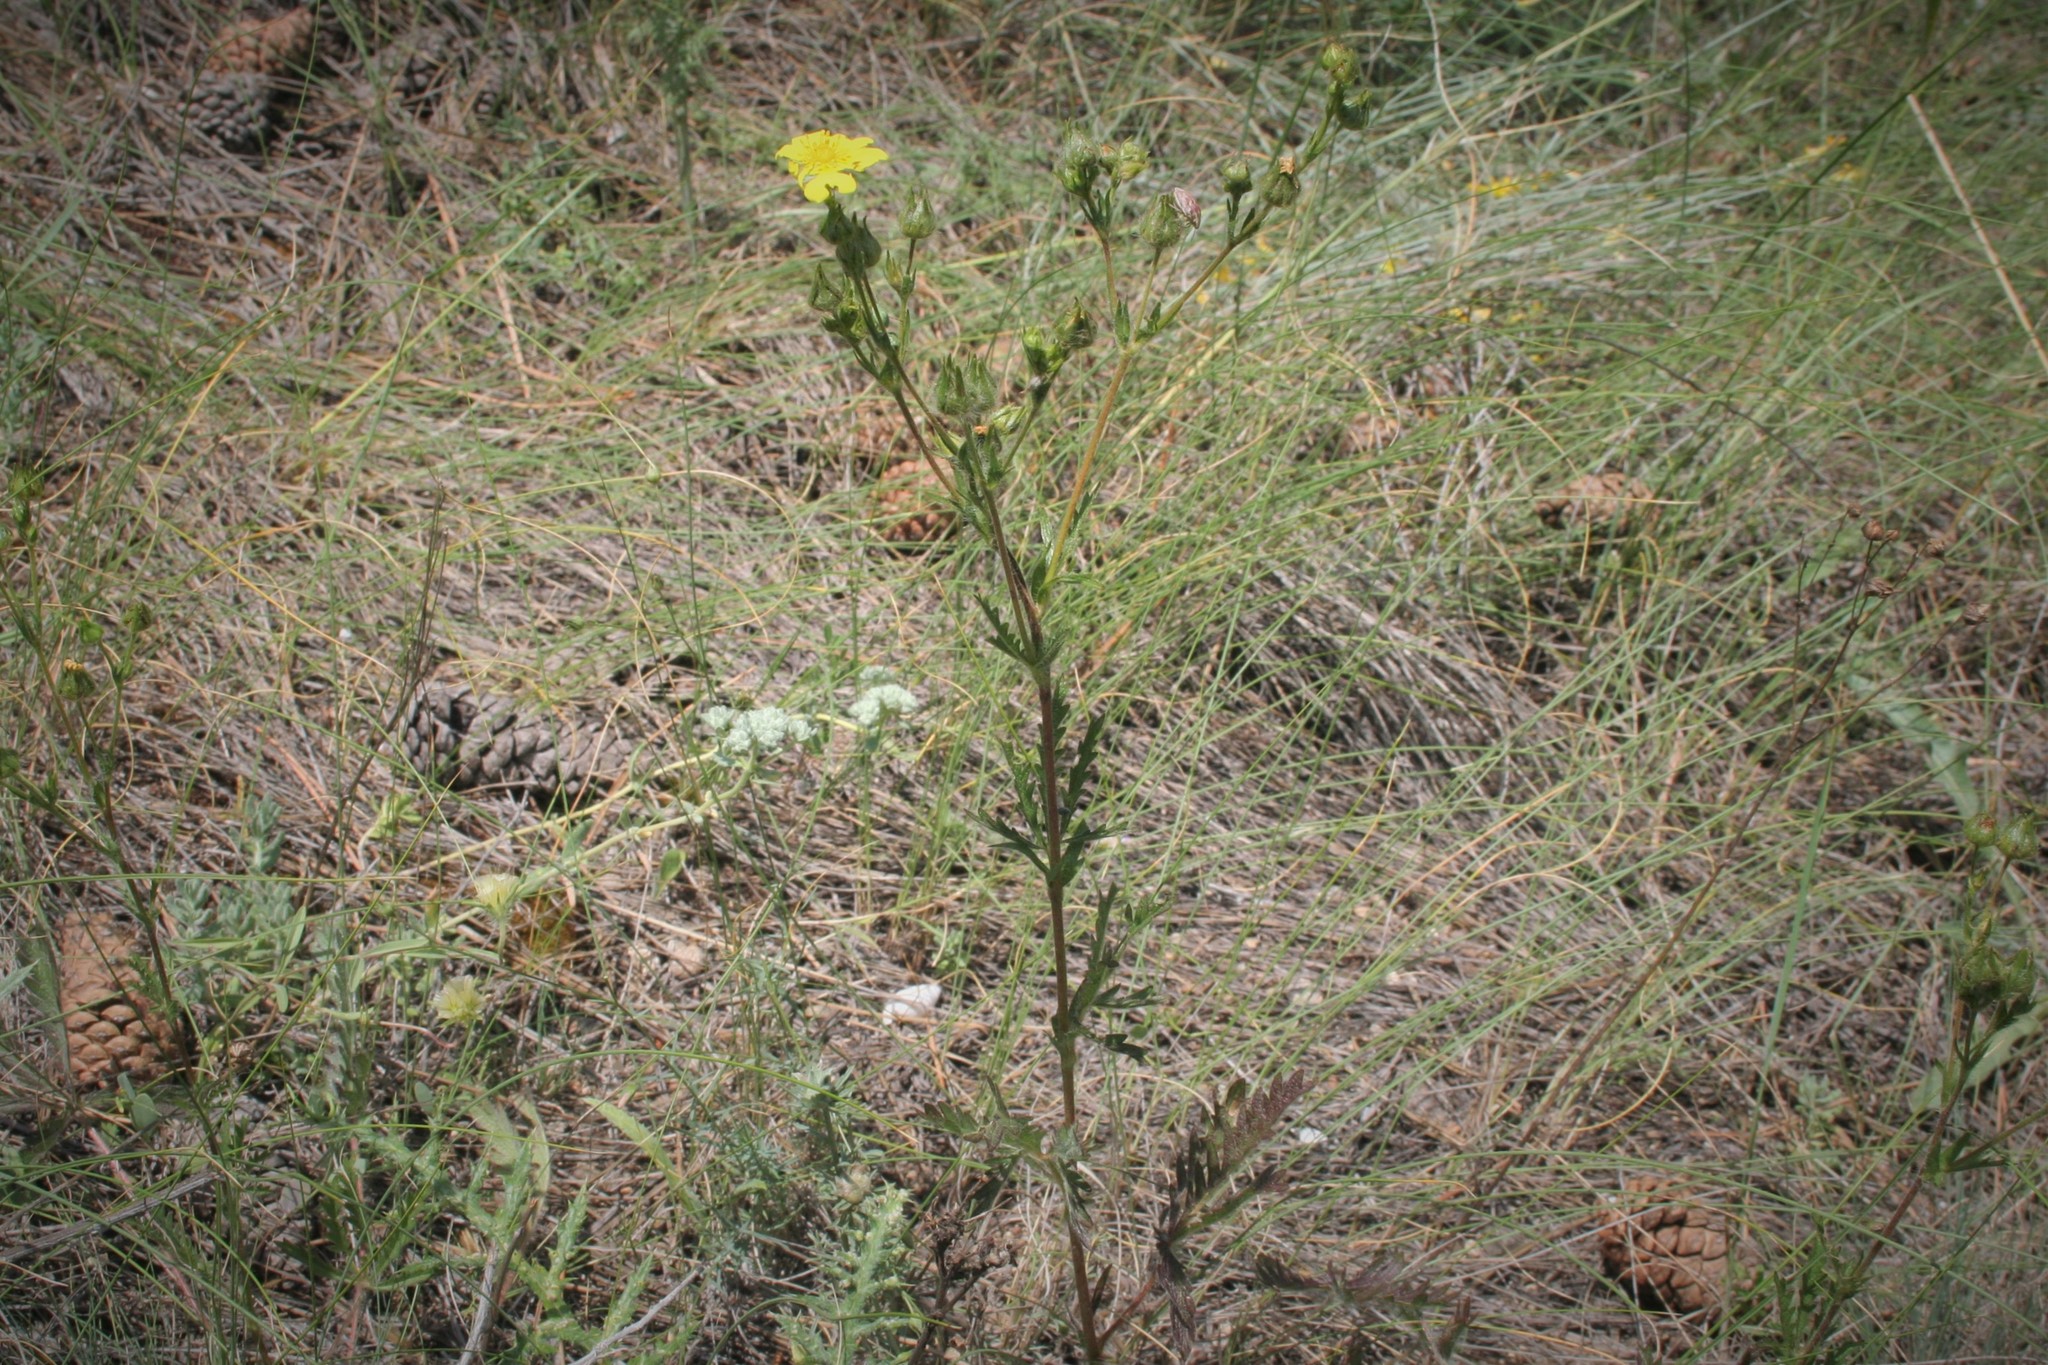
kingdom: Plantae
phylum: Tracheophyta
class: Magnoliopsida
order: Rosales
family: Rosaceae
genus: Potentilla
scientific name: Potentilla recta
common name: Sulphur cinquefoil
